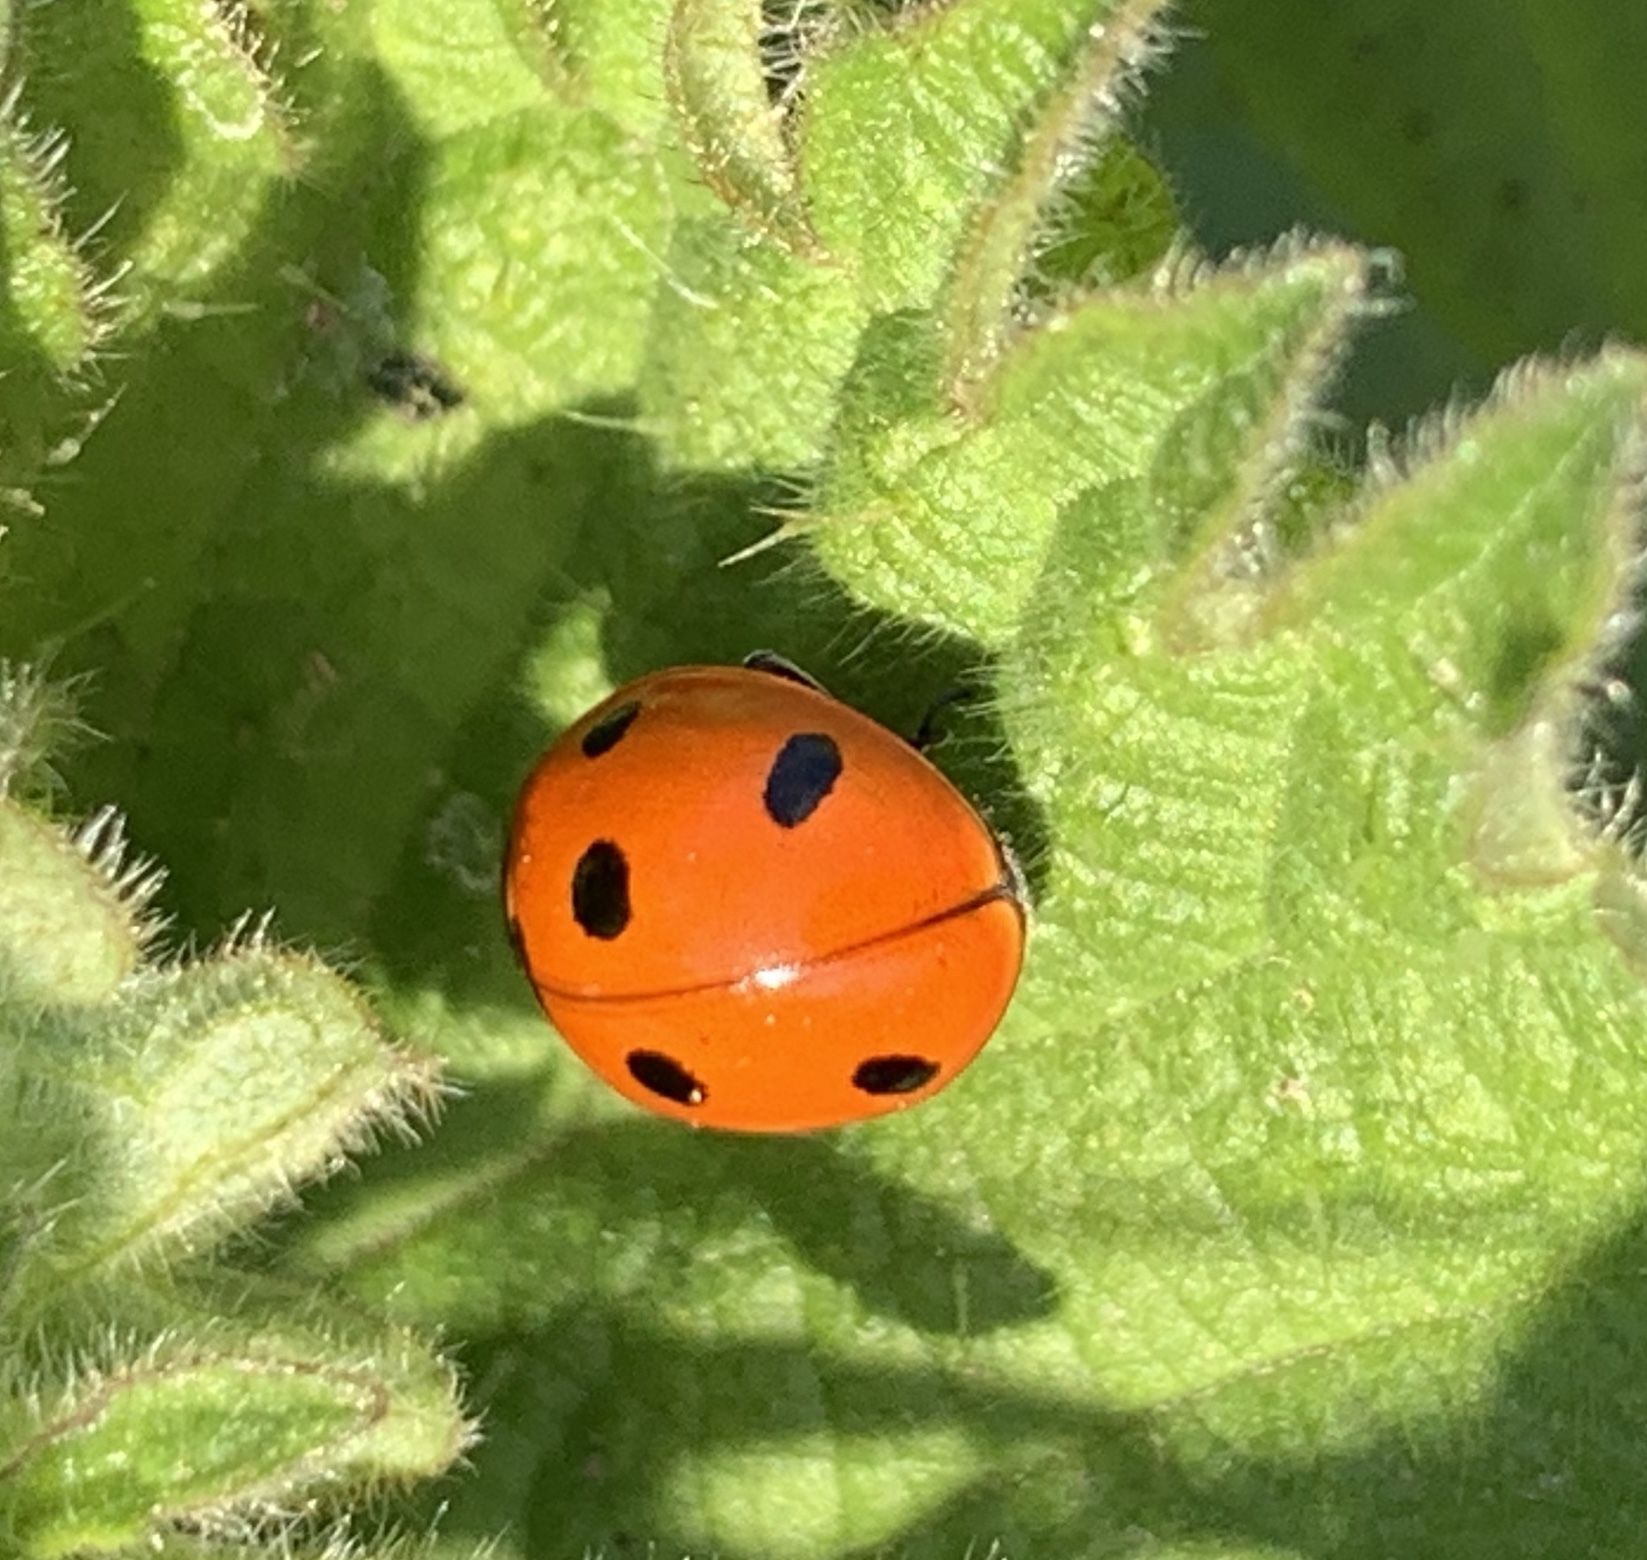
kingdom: Animalia
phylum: Arthropoda
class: Insecta
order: Coleoptera
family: Coccinellidae
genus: Coccinella
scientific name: Coccinella septempunctata
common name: Sevenspotted lady beetle
